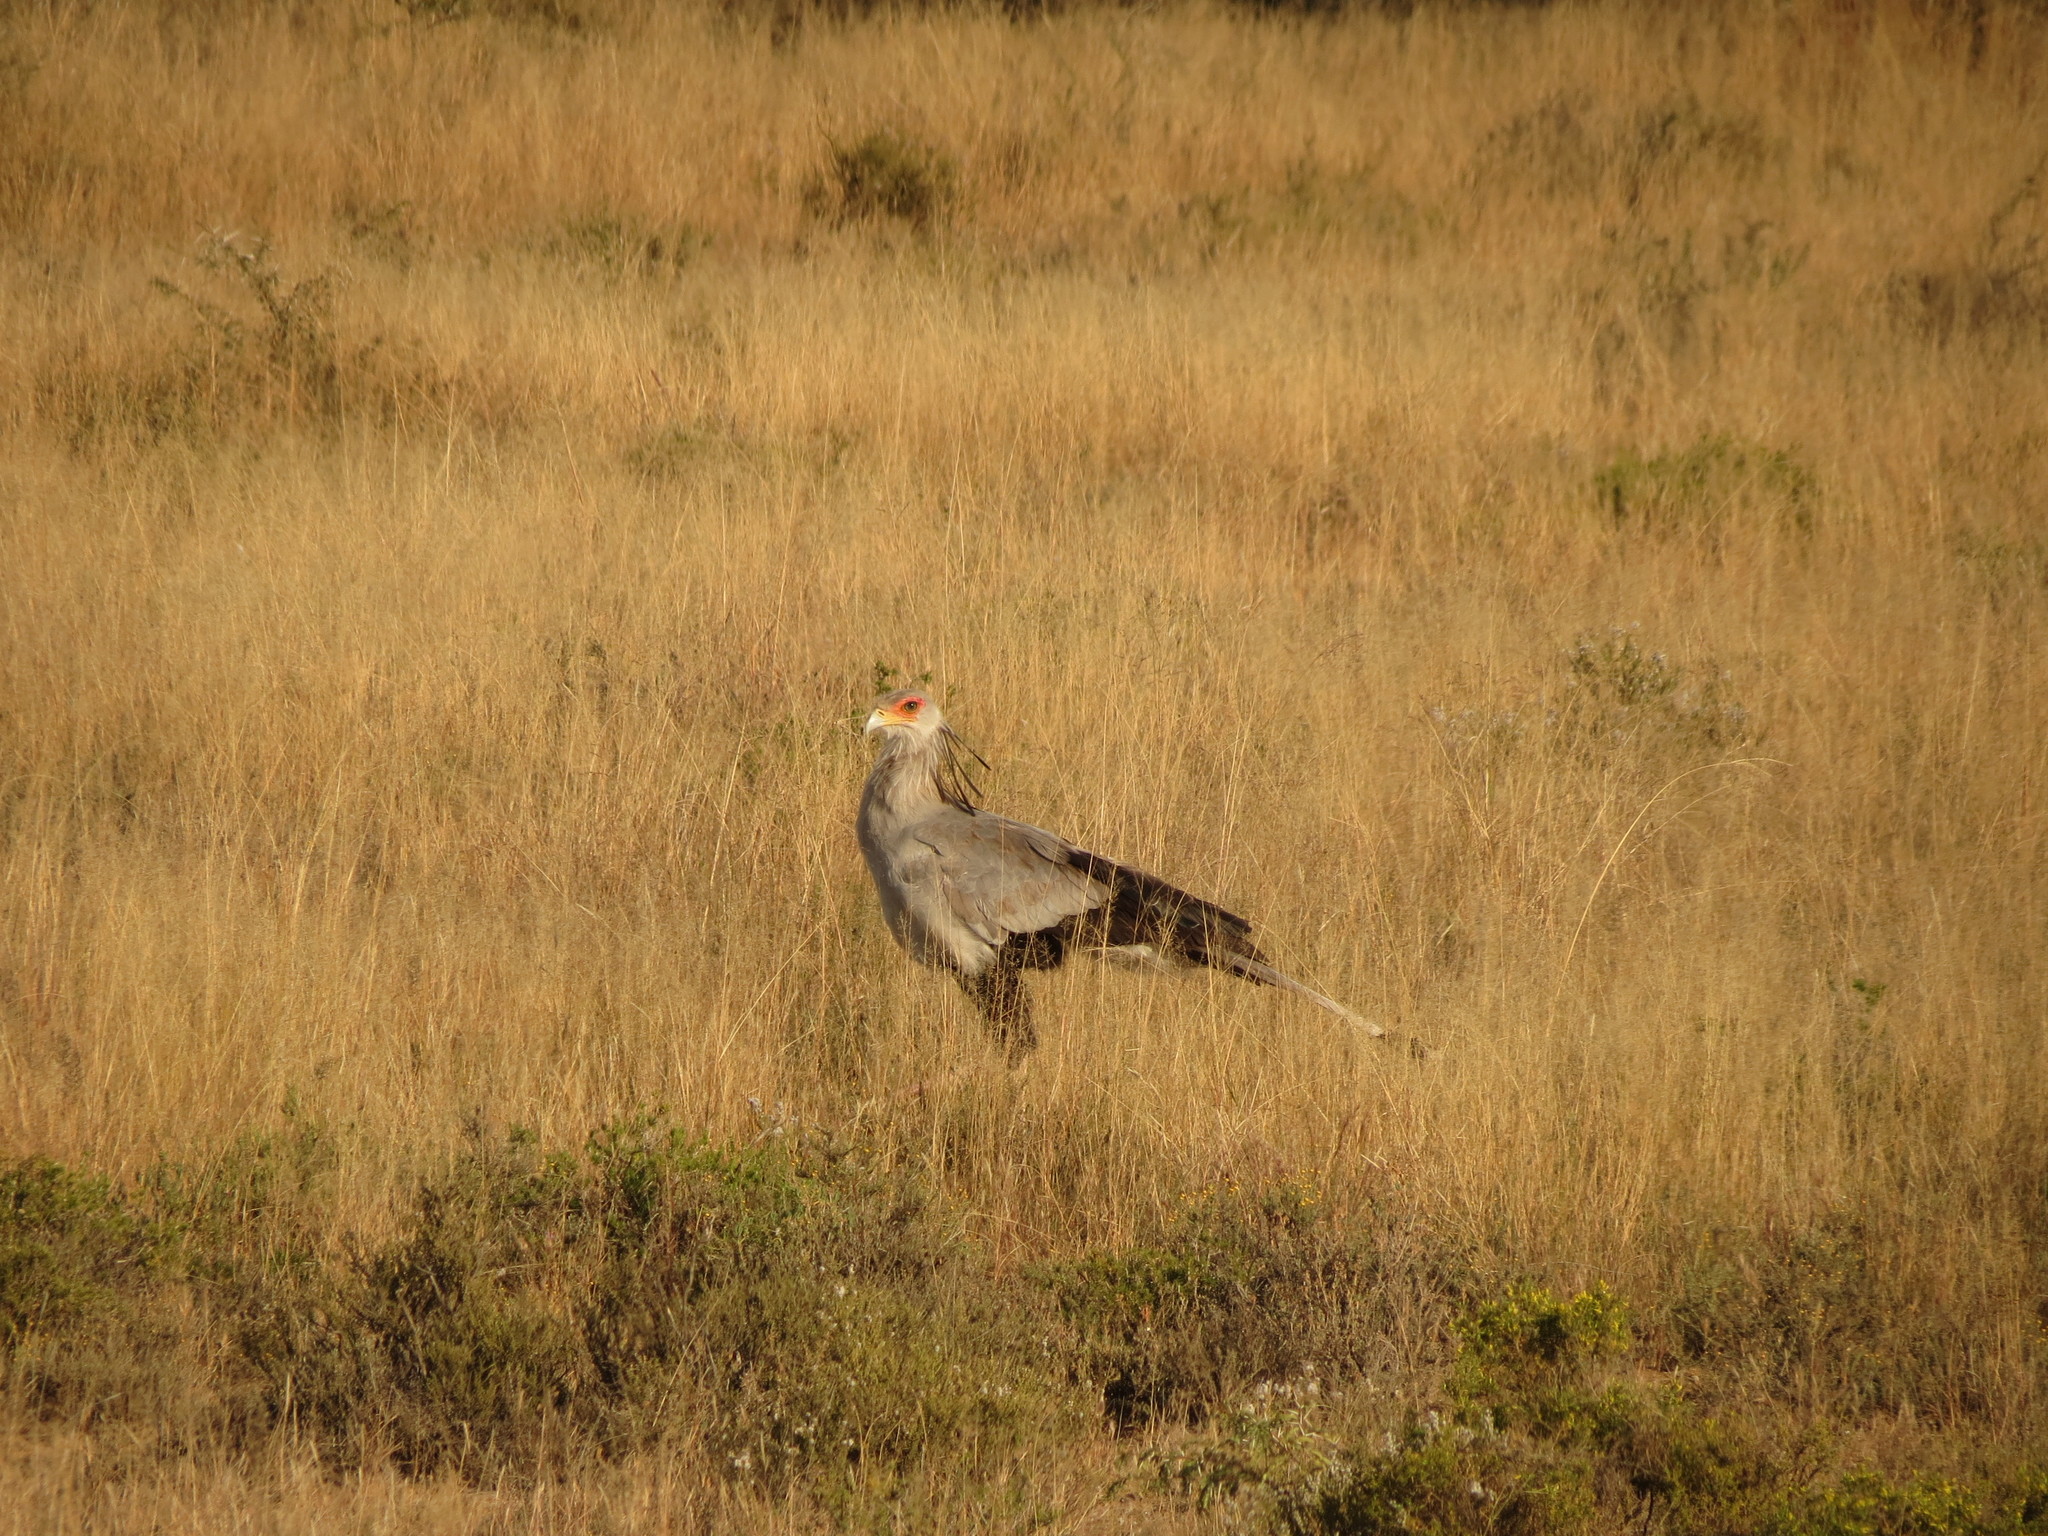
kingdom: Animalia
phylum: Chordata
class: Aves
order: Accipitriformes
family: Sagittariidae
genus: Sagittarius
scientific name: Sagittarius serpentarius
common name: Secretarybird
